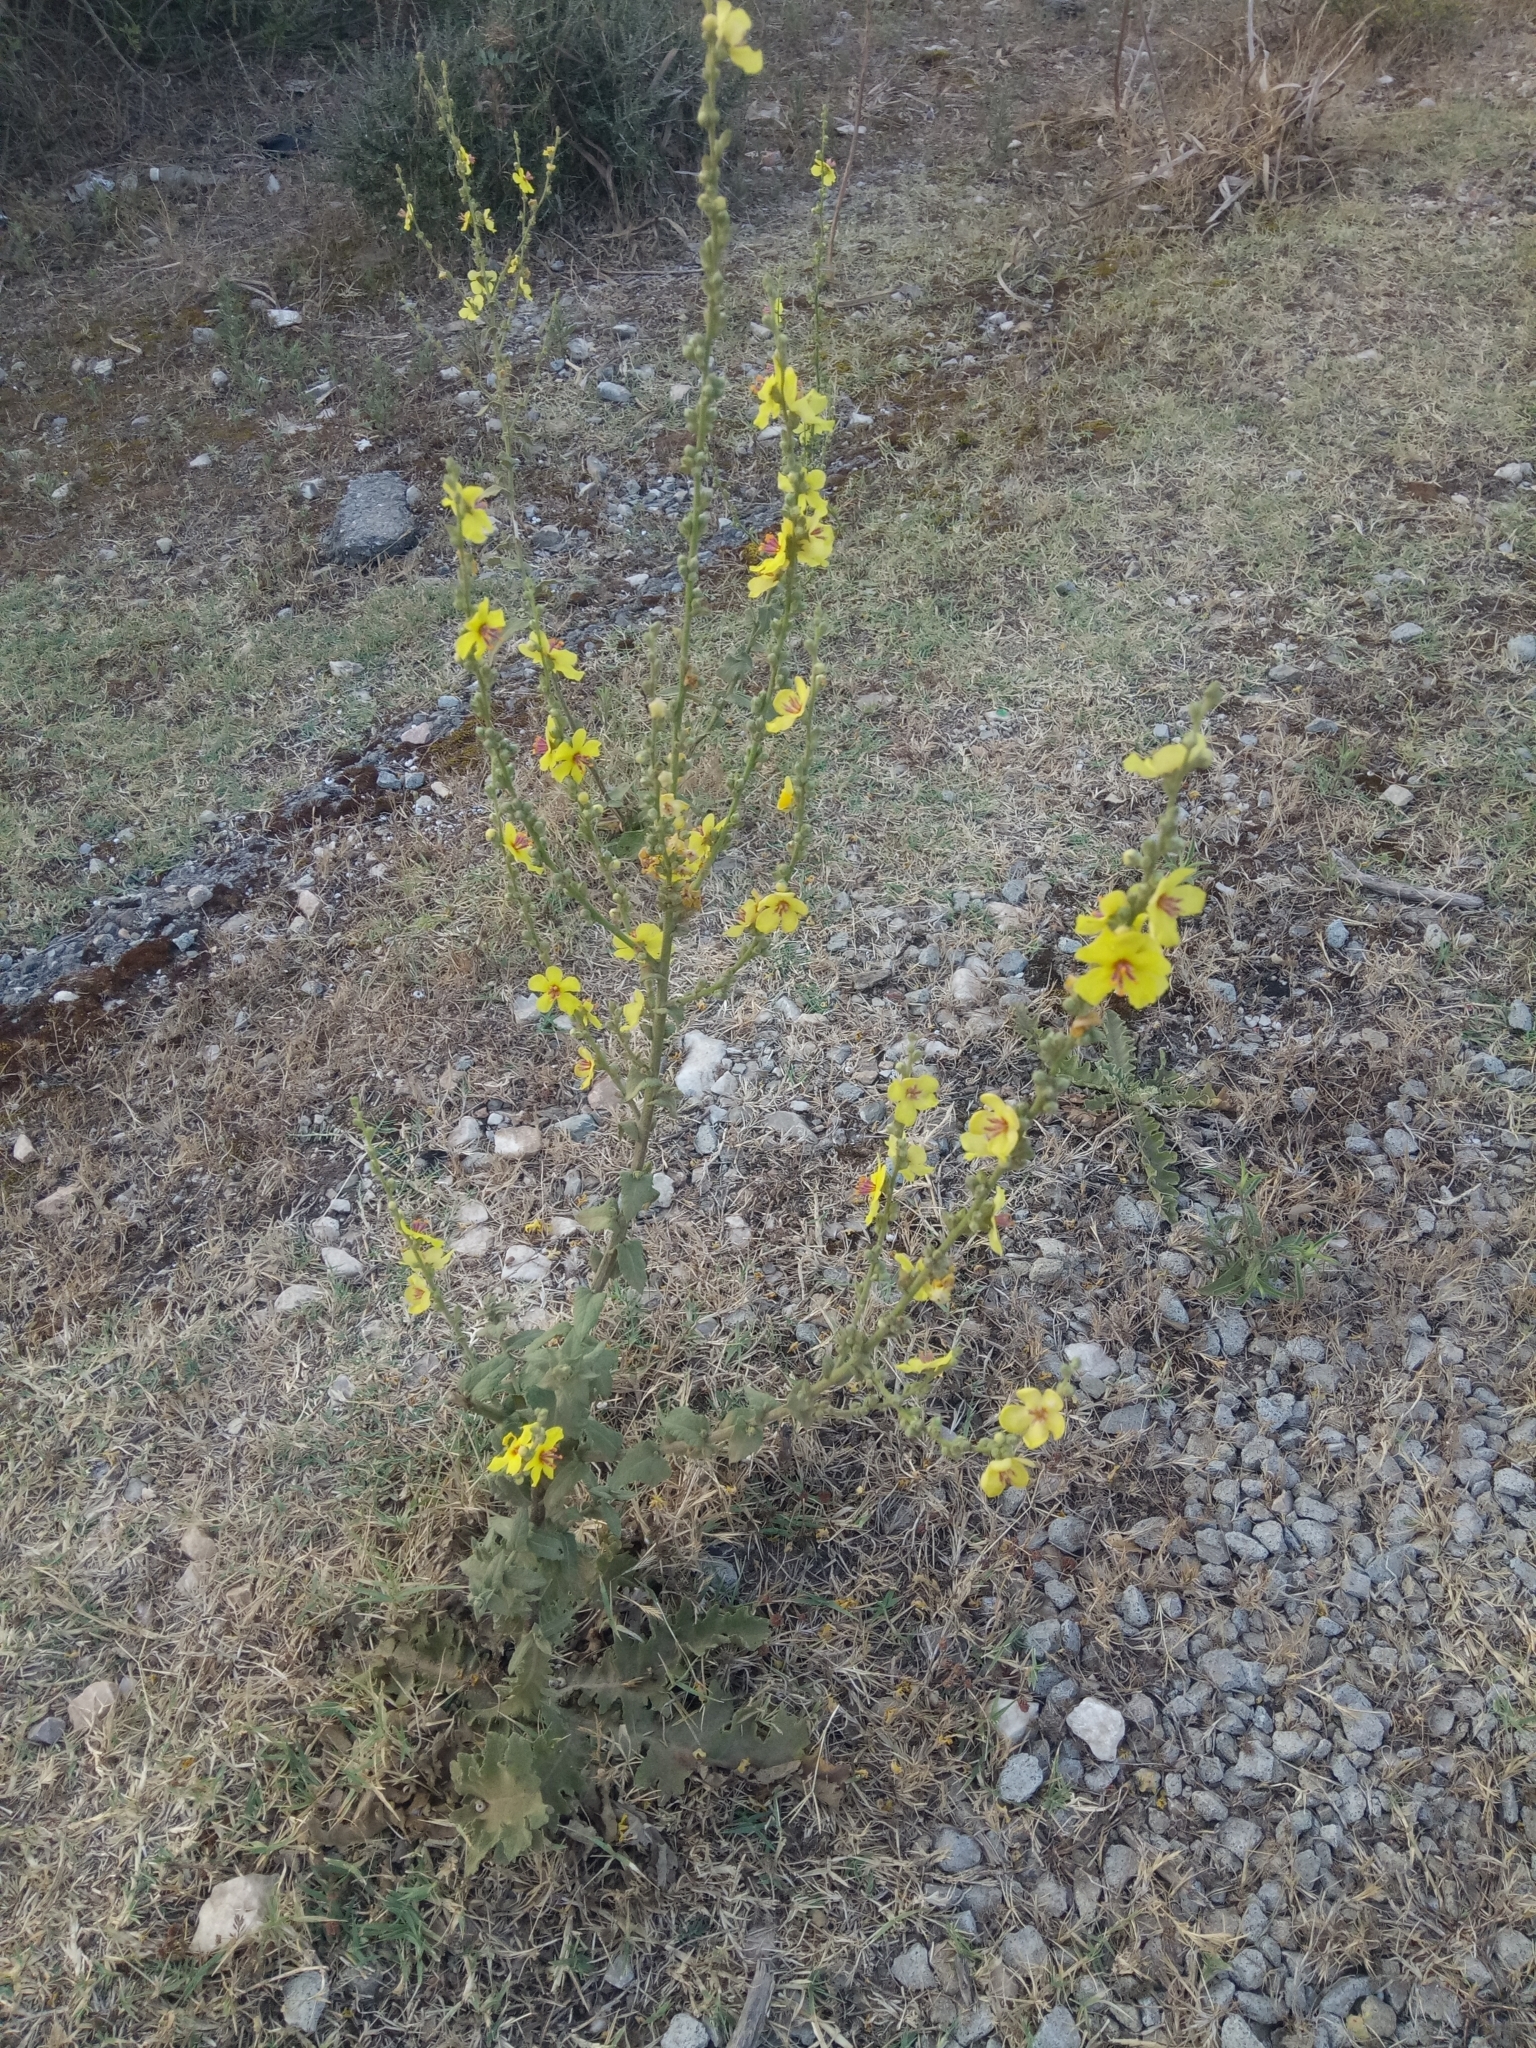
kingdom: Plantae
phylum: Tracheophyta
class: Magnoliopsida
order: Lamiales
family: Scrophulariaceae
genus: Verbascum
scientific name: Verbascum sinuatum
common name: Wavyleaf mullein
